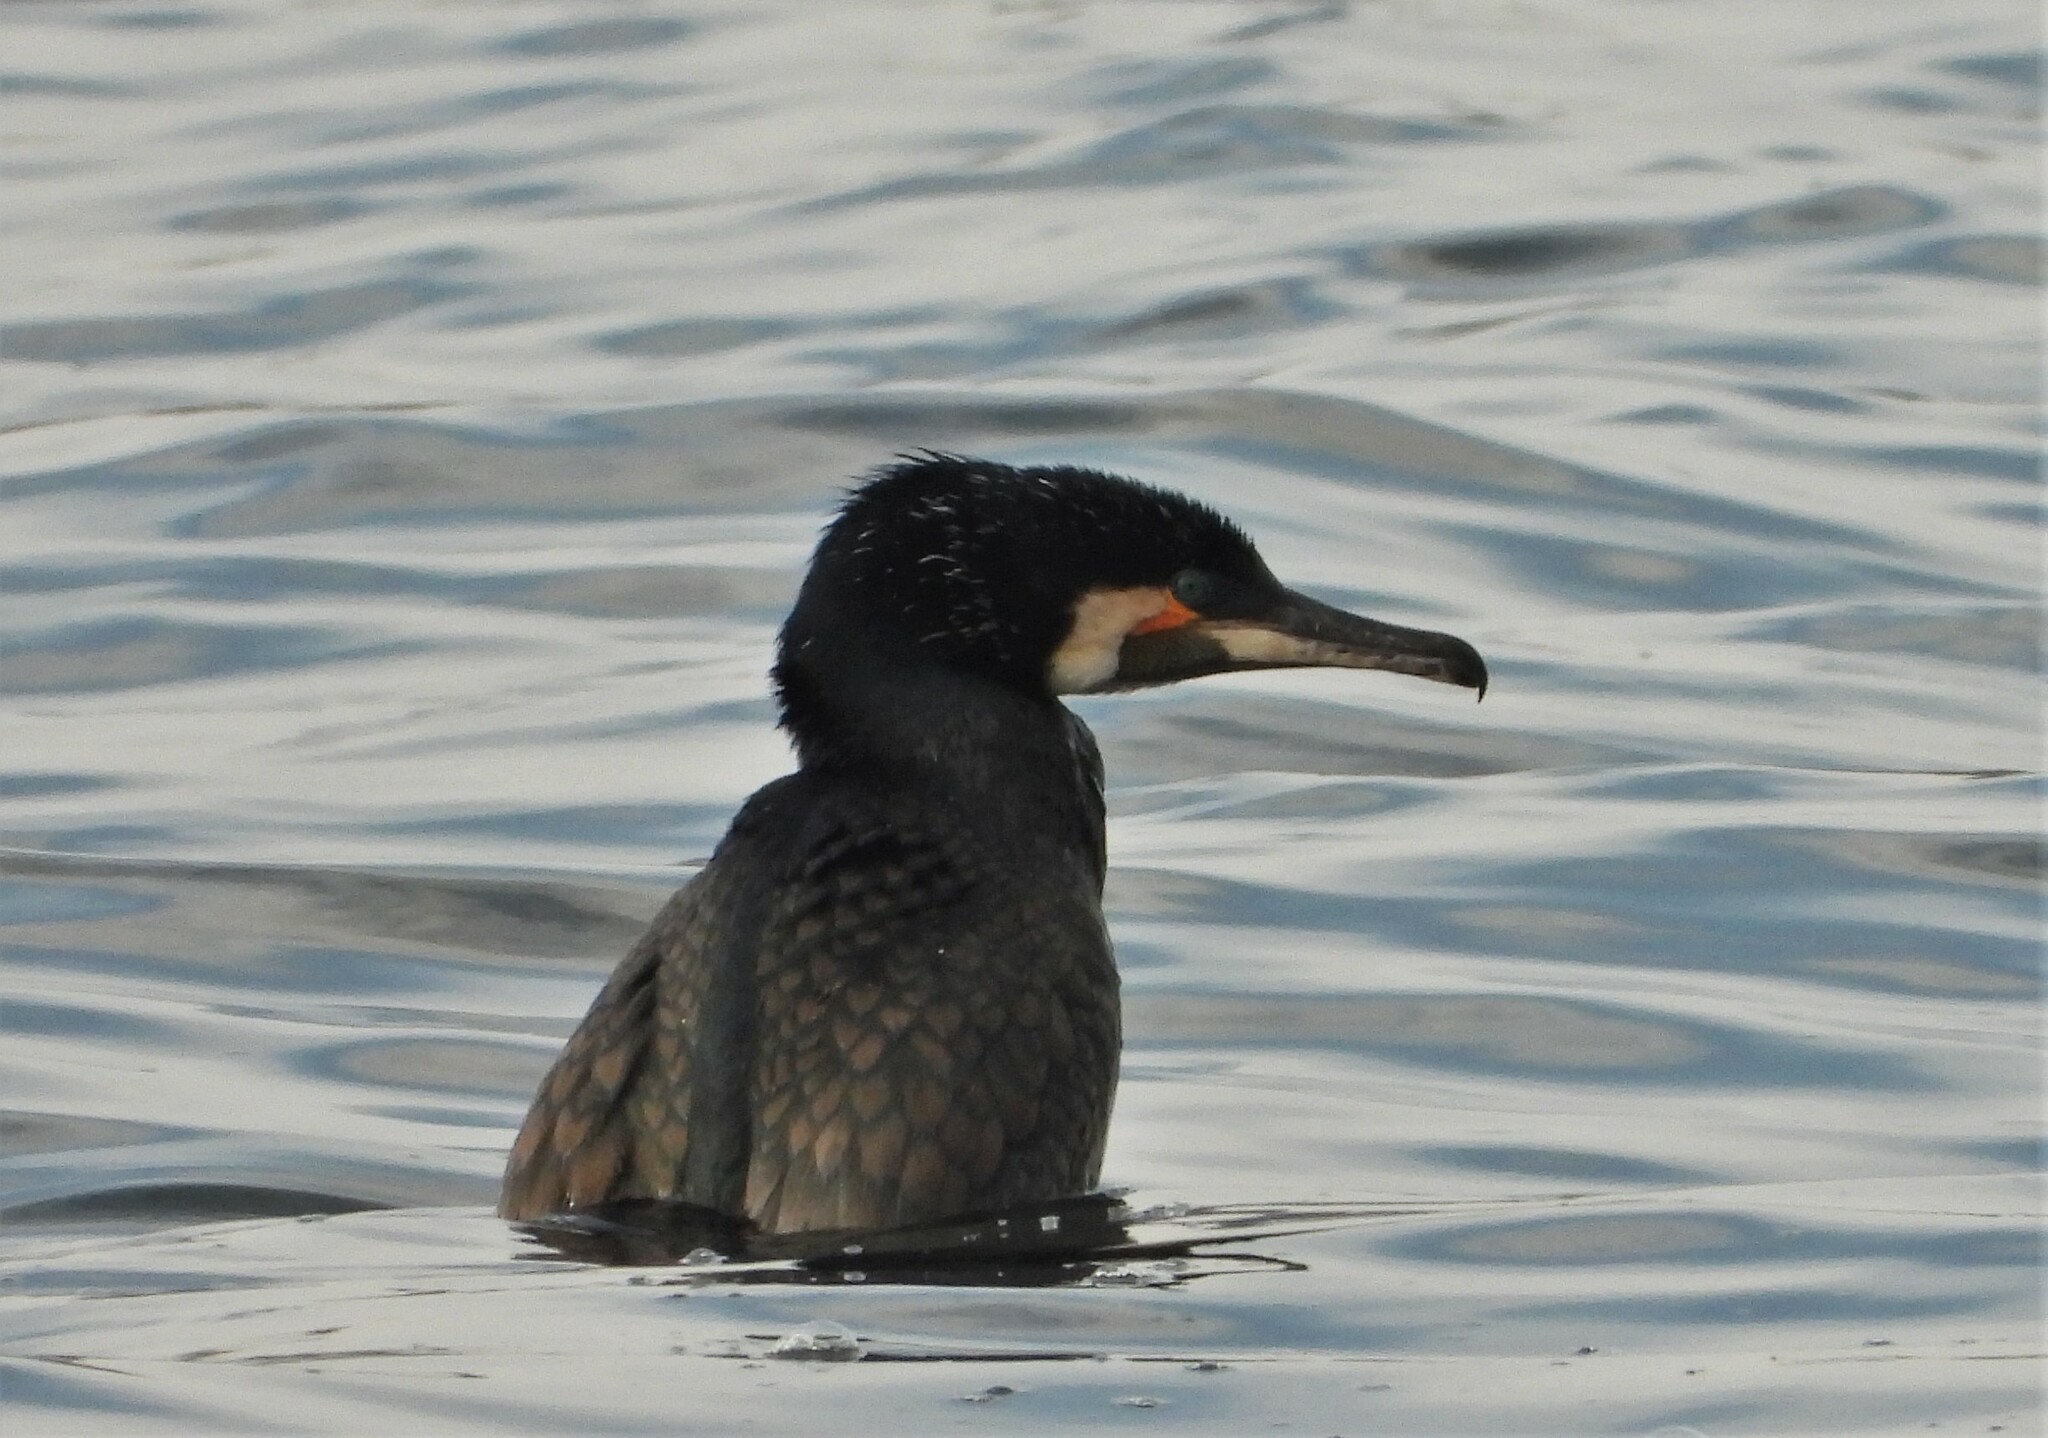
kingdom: Animalia
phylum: Chordata
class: Aves
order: Suliformes
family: Phalacrocoracidae
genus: Phalacrocorax
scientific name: Phalacrocorax carbo
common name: Great cormorant
